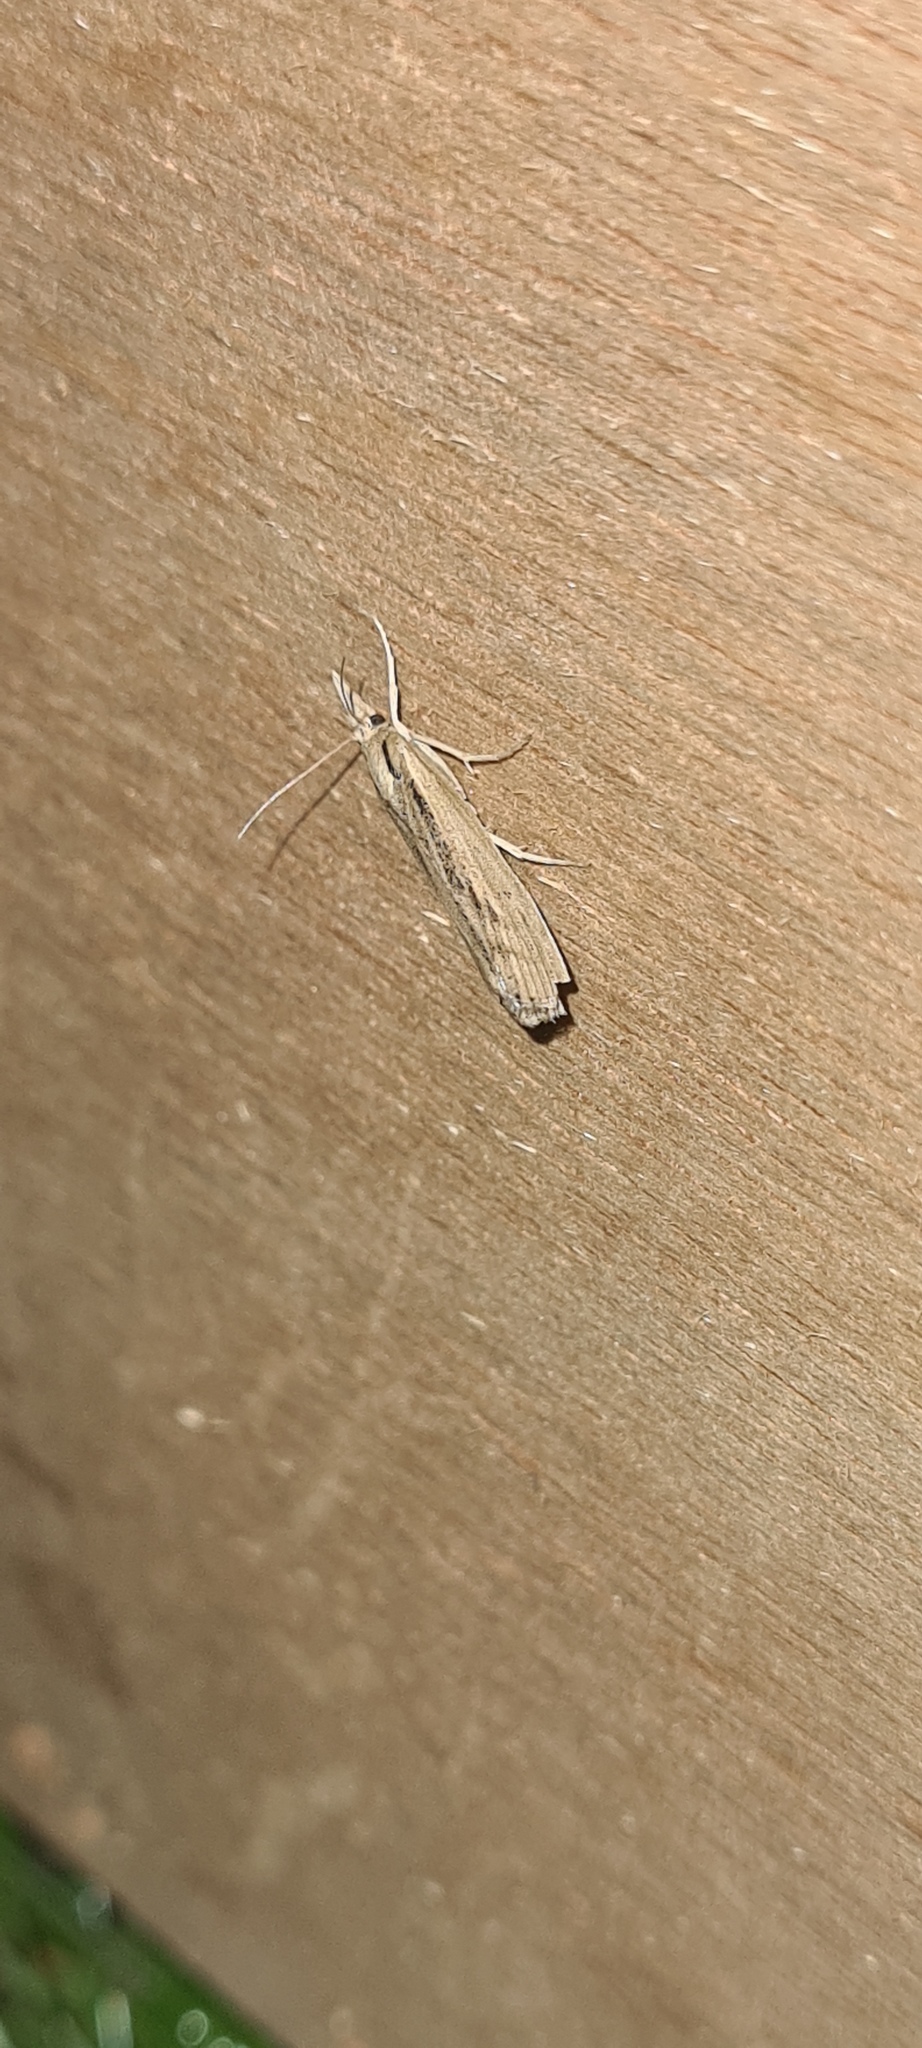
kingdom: Animalia
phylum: Arthropoda
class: Insecta
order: Lepidoptera
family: Crambidae
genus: Pediasia
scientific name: Pediasia aridella
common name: Salt-marsh grass-veneer
